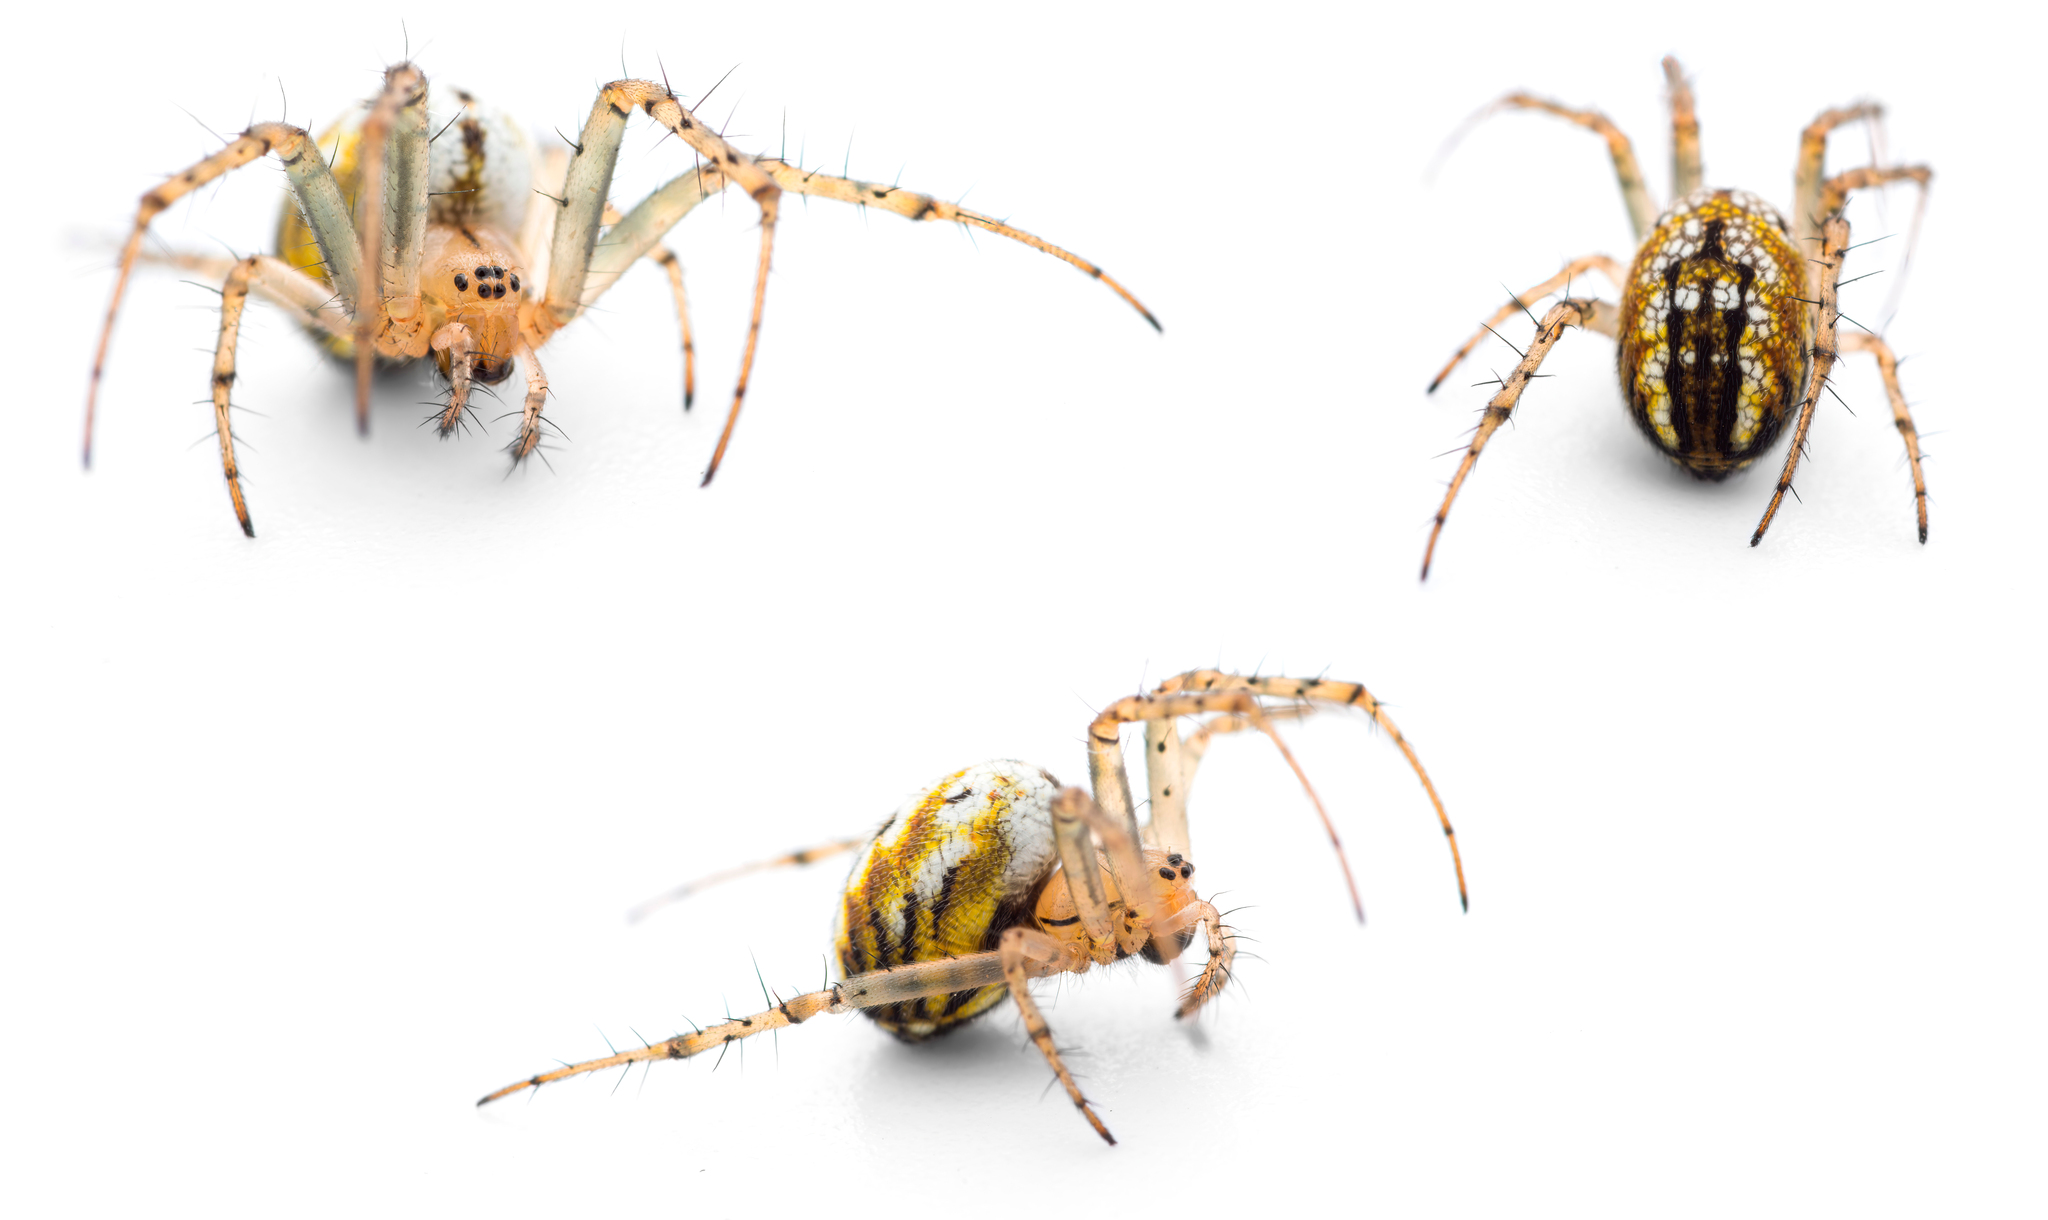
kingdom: Animalia
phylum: Arthropoda
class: Arachnida
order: Araneae
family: Araneidae
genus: Mangora
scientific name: Mangora acalypha
